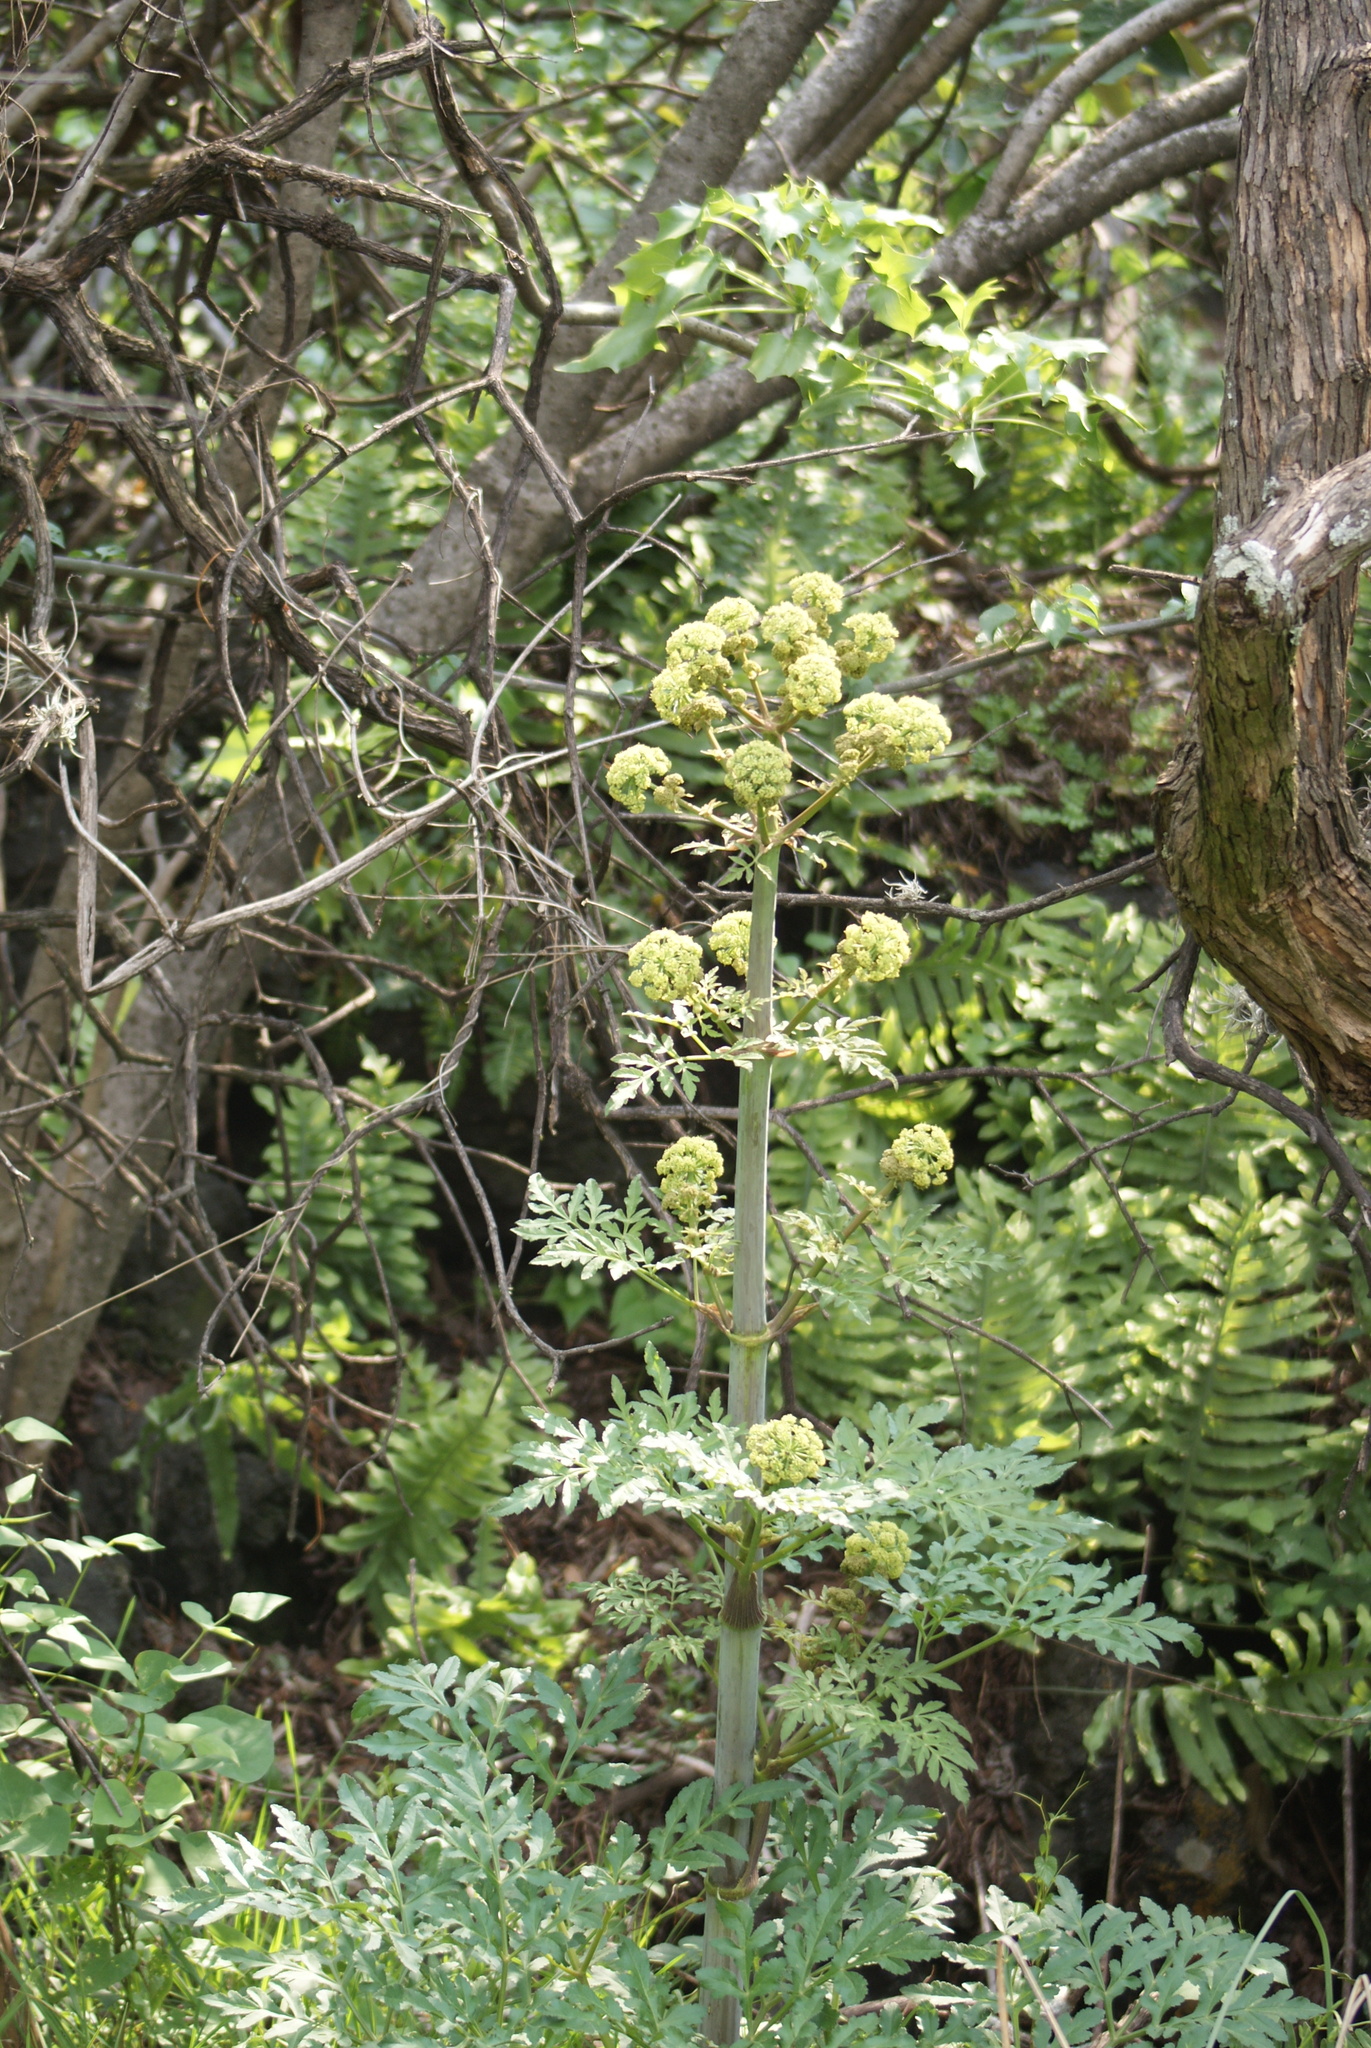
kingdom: Plantae
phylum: Tracheophyta
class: Magnoliopsida
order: Apiales
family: Apiaceae
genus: Prionosciadium
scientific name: Prionosciadium thapsoides
